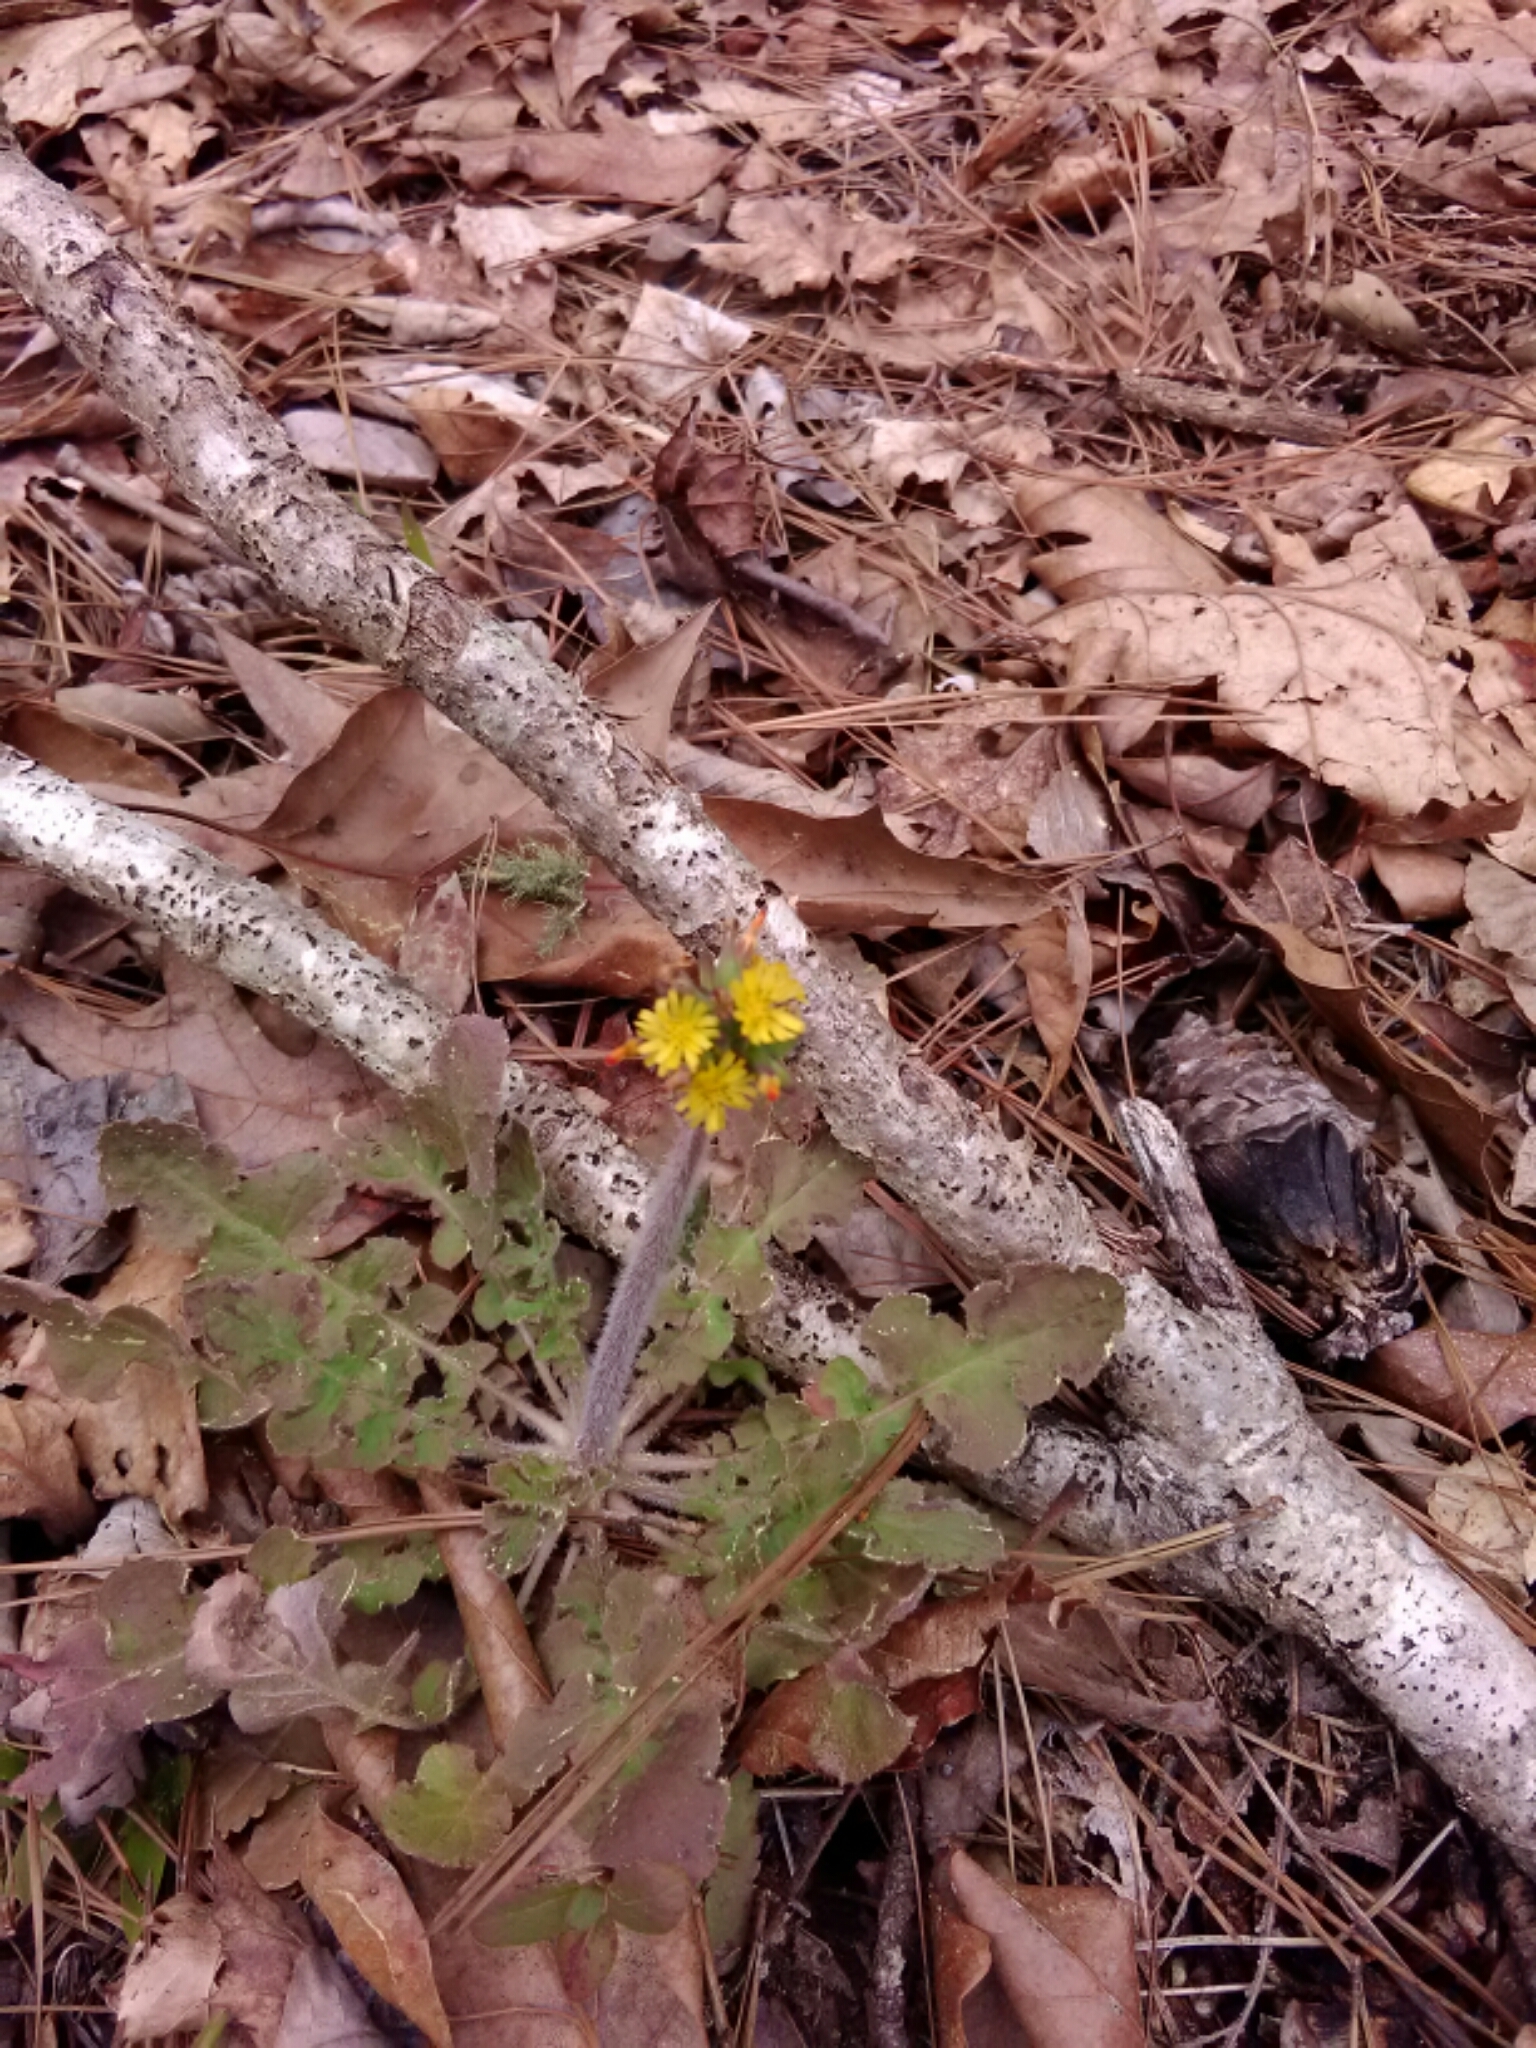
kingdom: Plantae
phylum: Tracheophyta
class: Magnoliopsida
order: Asterales
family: Asteraceae
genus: Youngia
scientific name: Youngia japonica
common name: Oriental false hawksbeard
